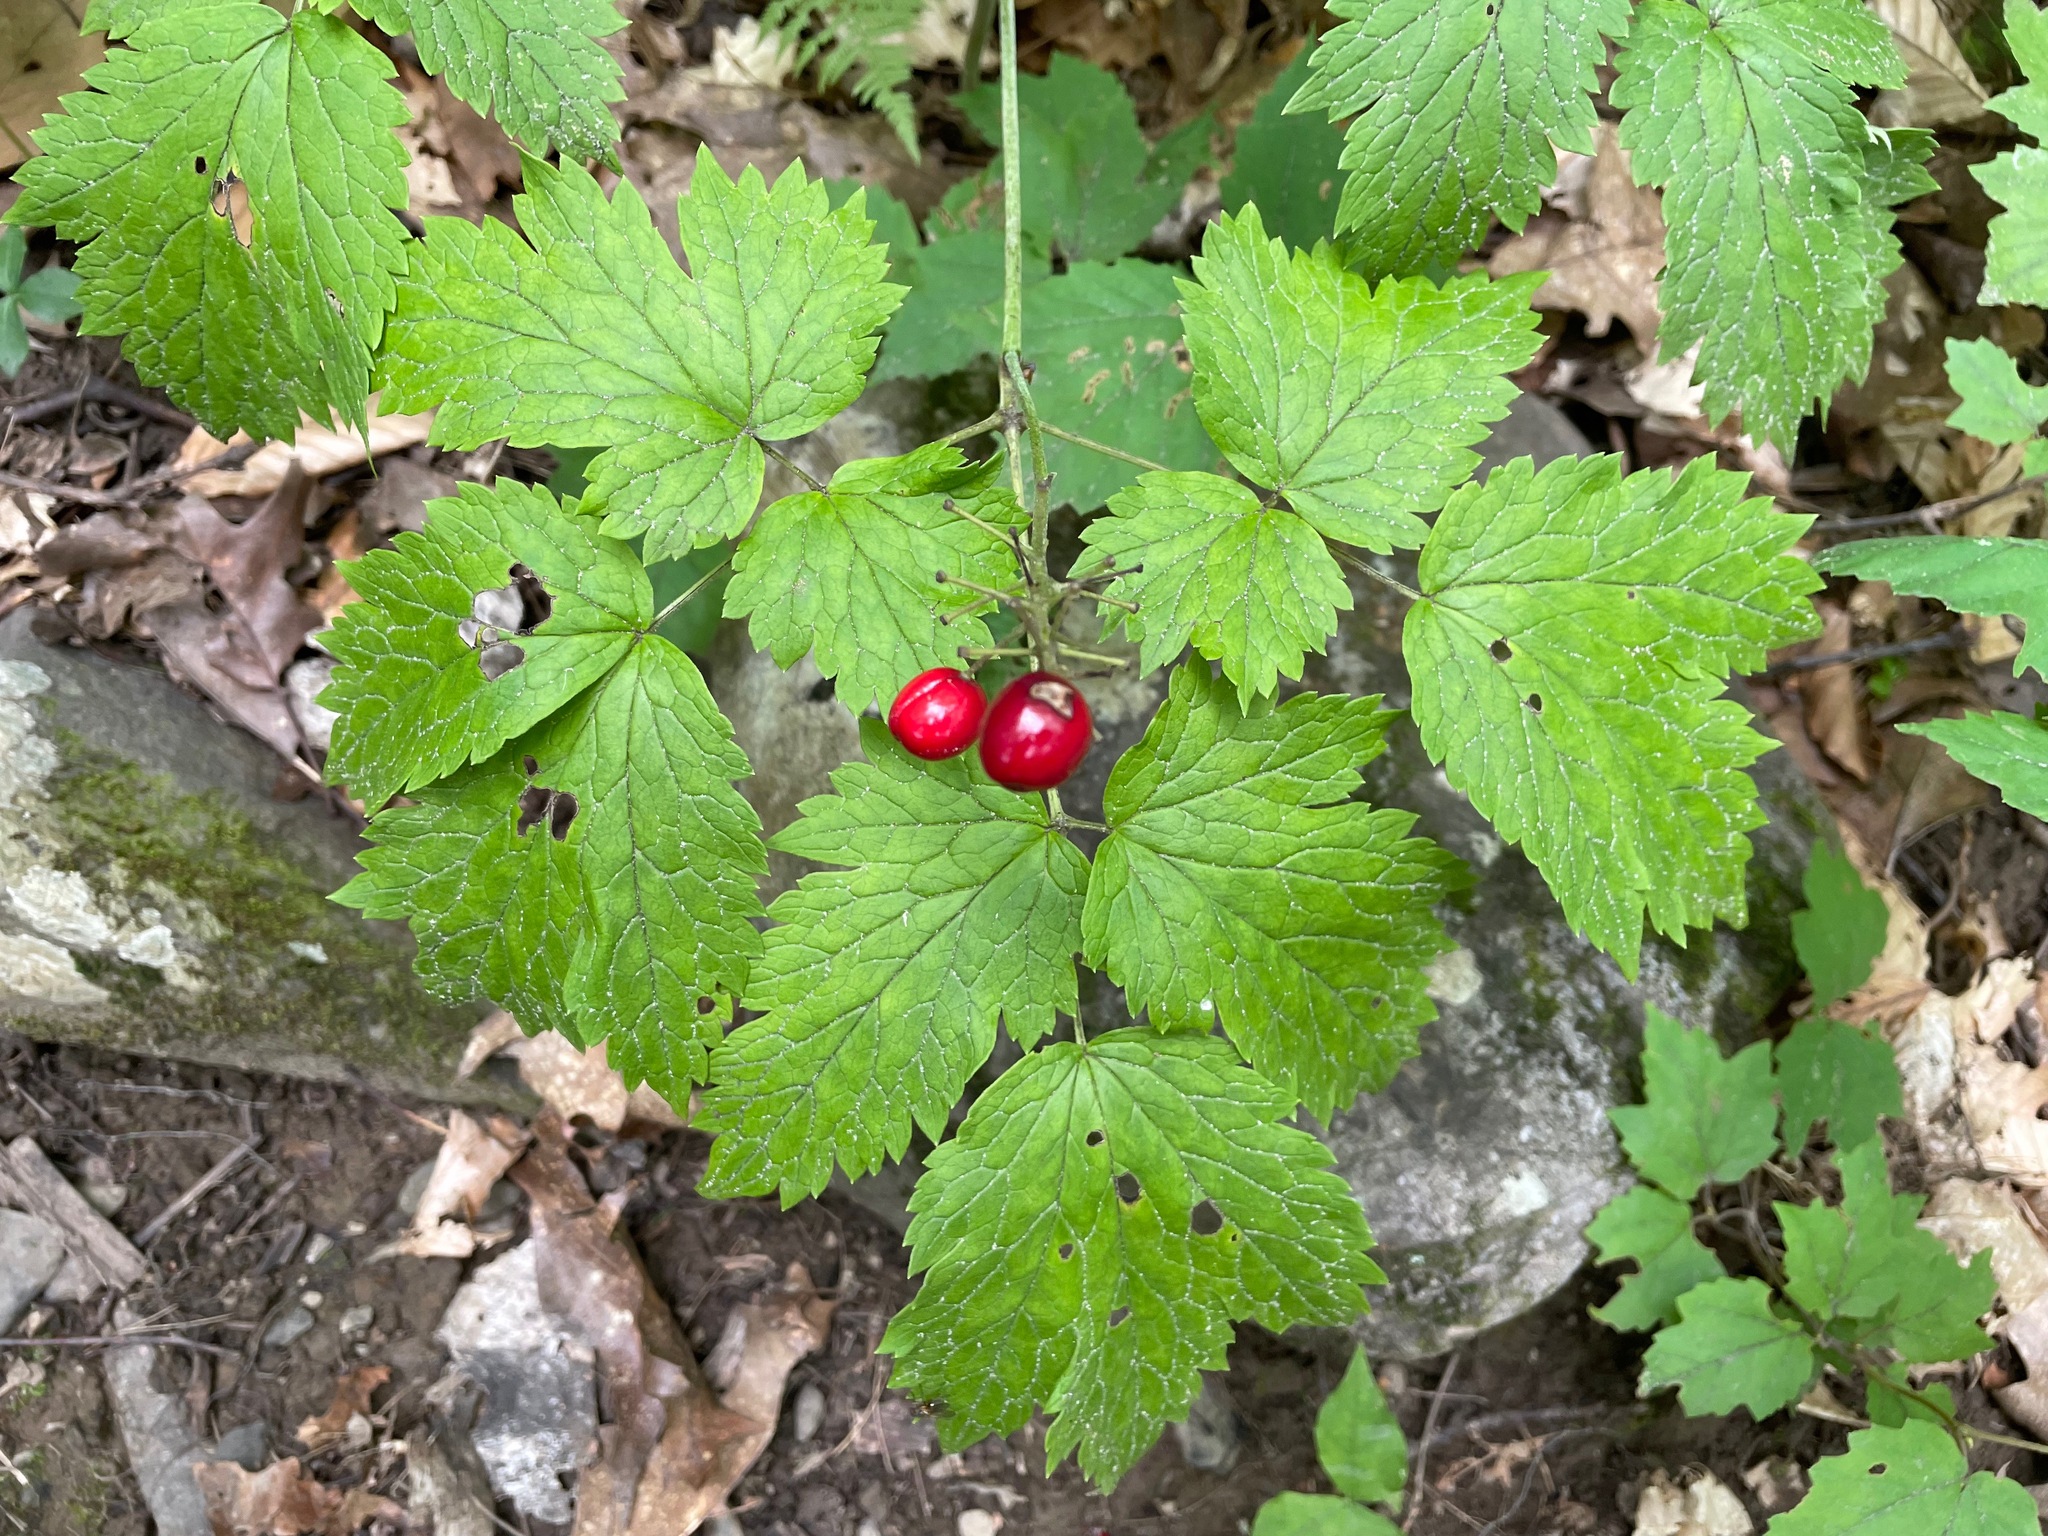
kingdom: Plantae
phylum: Tracheophyta
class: Magnoliopsida
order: Ranunculales
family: Ranunculaceae
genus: Actaea
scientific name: Actaea rubra
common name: Red baneberry
